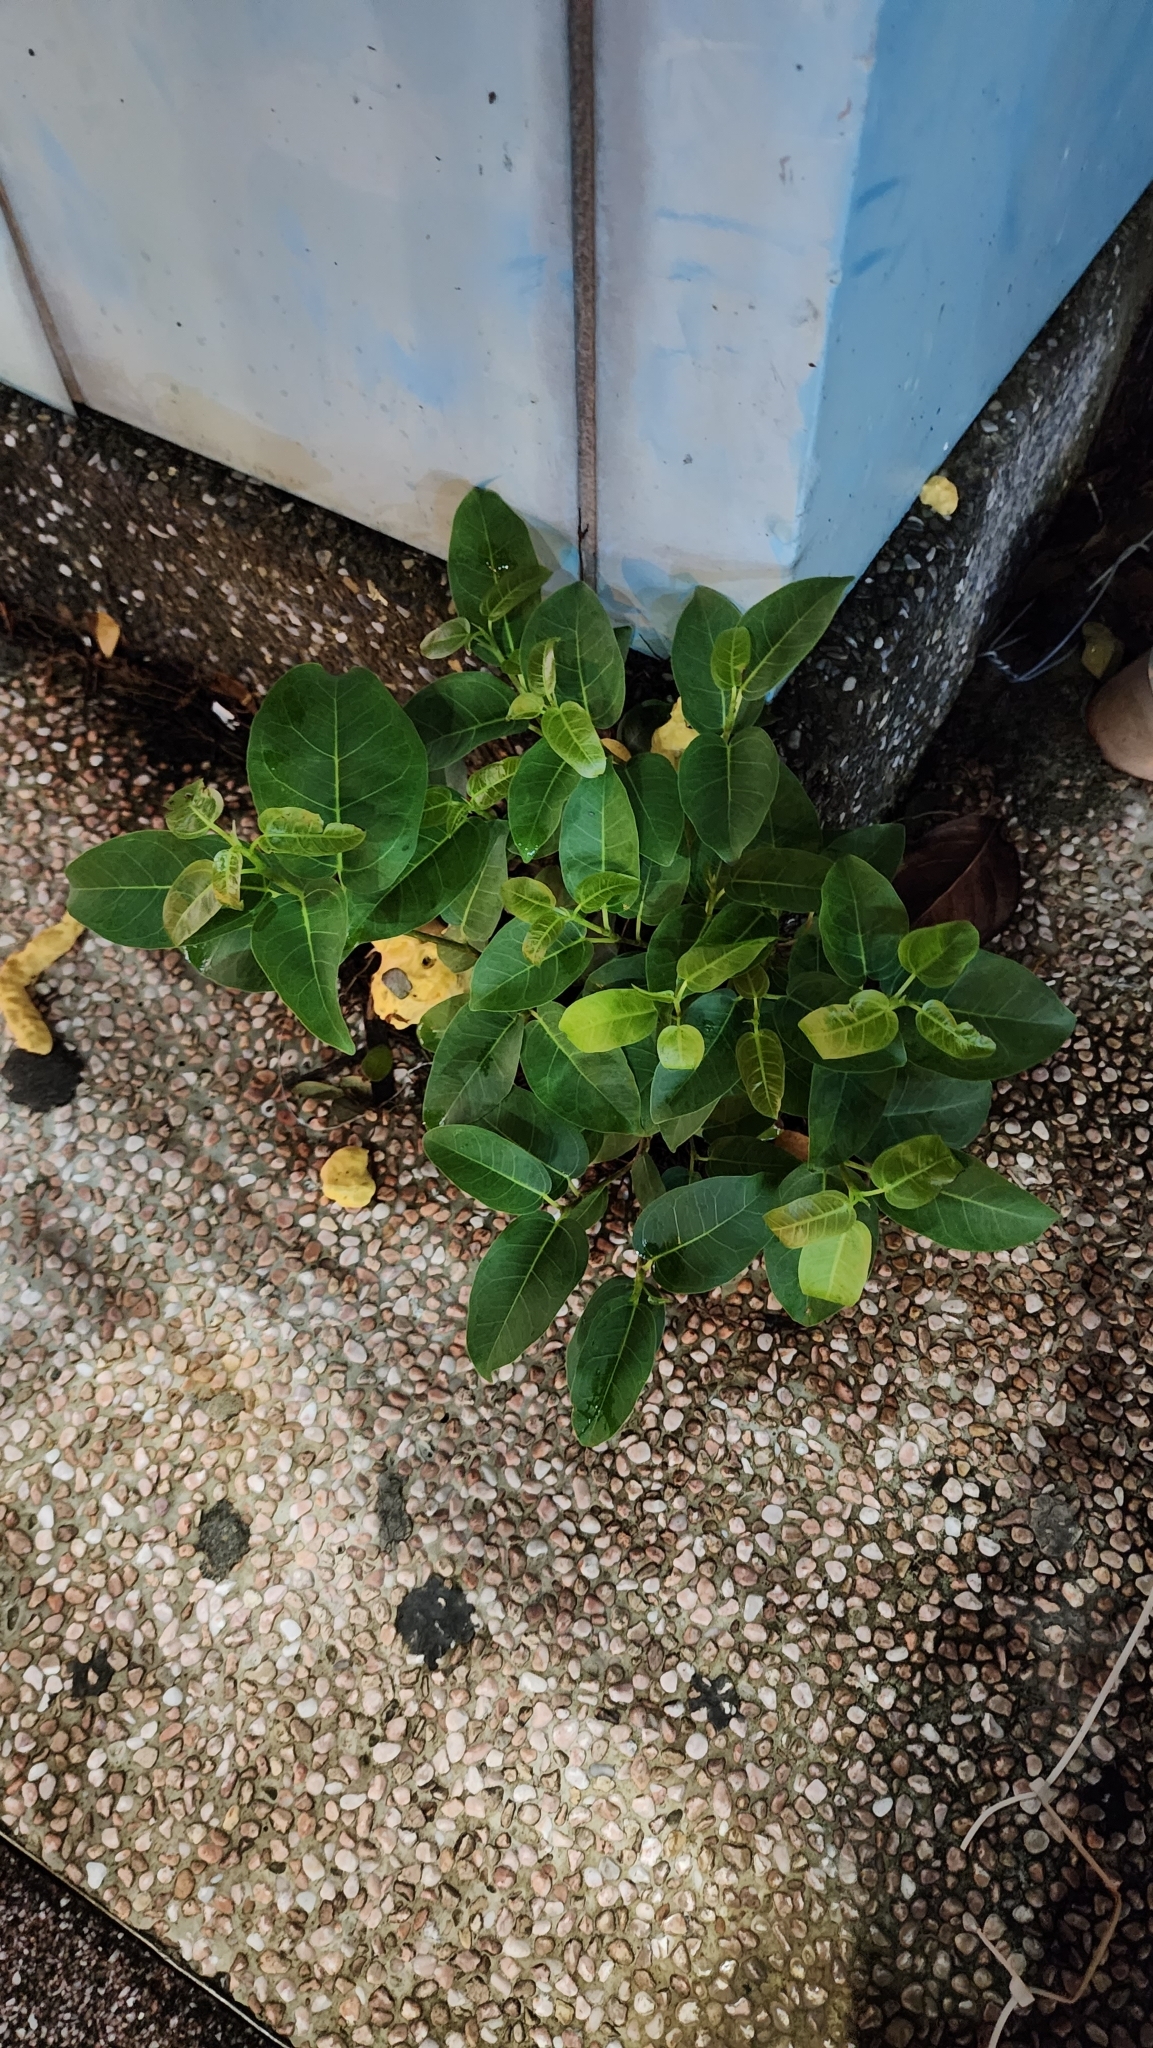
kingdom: Plantae
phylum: Tracheophyta
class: Magnoliopsida
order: Rosales
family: Moraceae
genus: Ficus
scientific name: Ficus subpisocarpa
